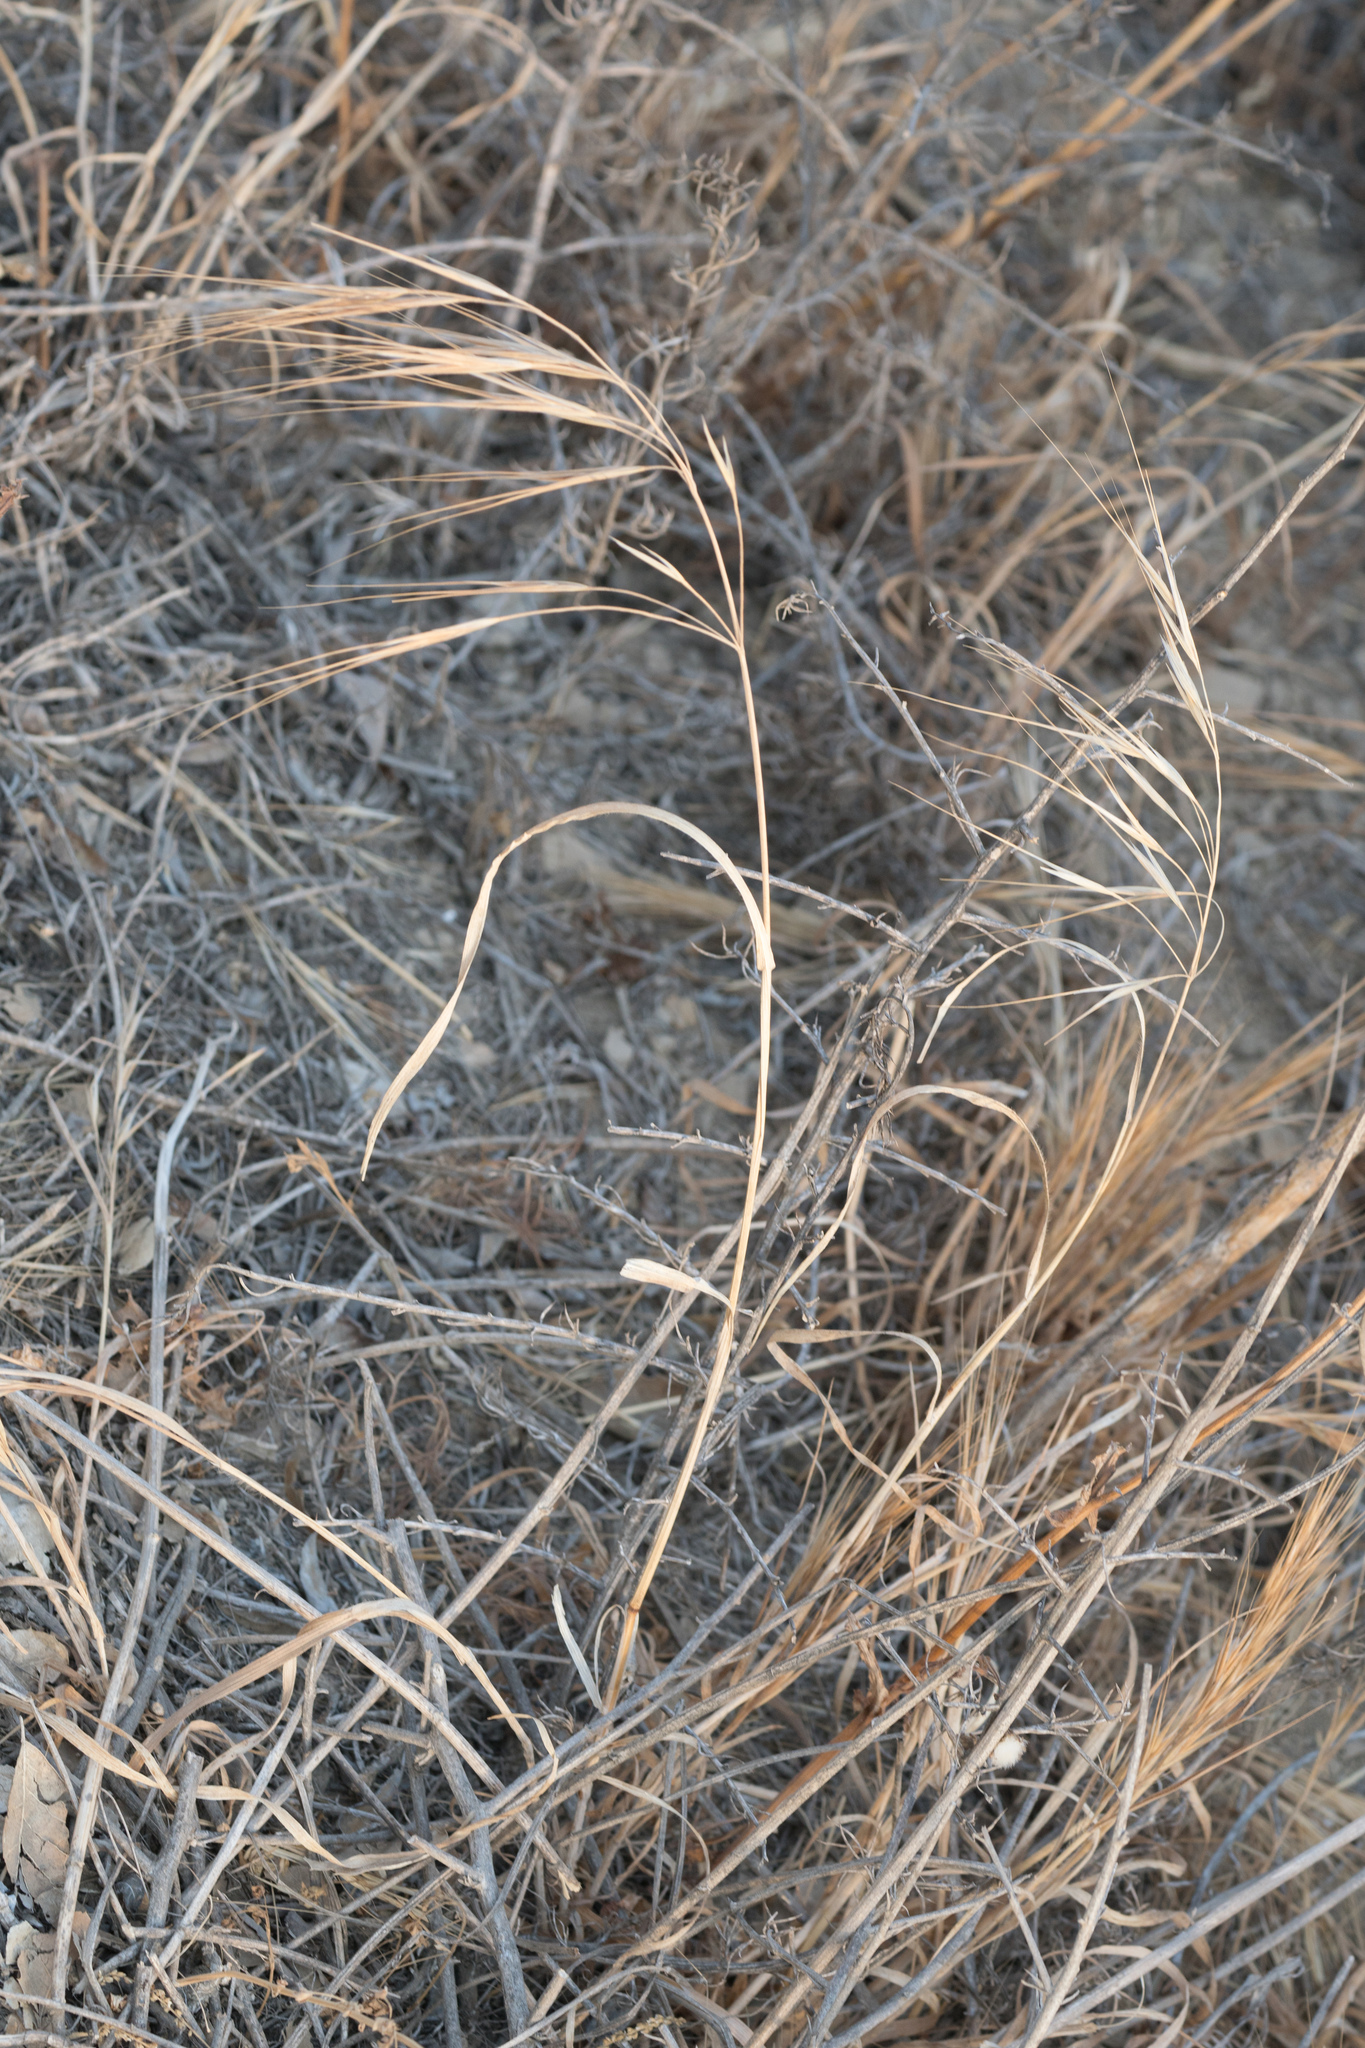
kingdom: Plantae
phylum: Tracheophyta
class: Liliopsida
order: Poales
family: Poaceae
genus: Bromus
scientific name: Bromus diandrus
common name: Ripgut brome
